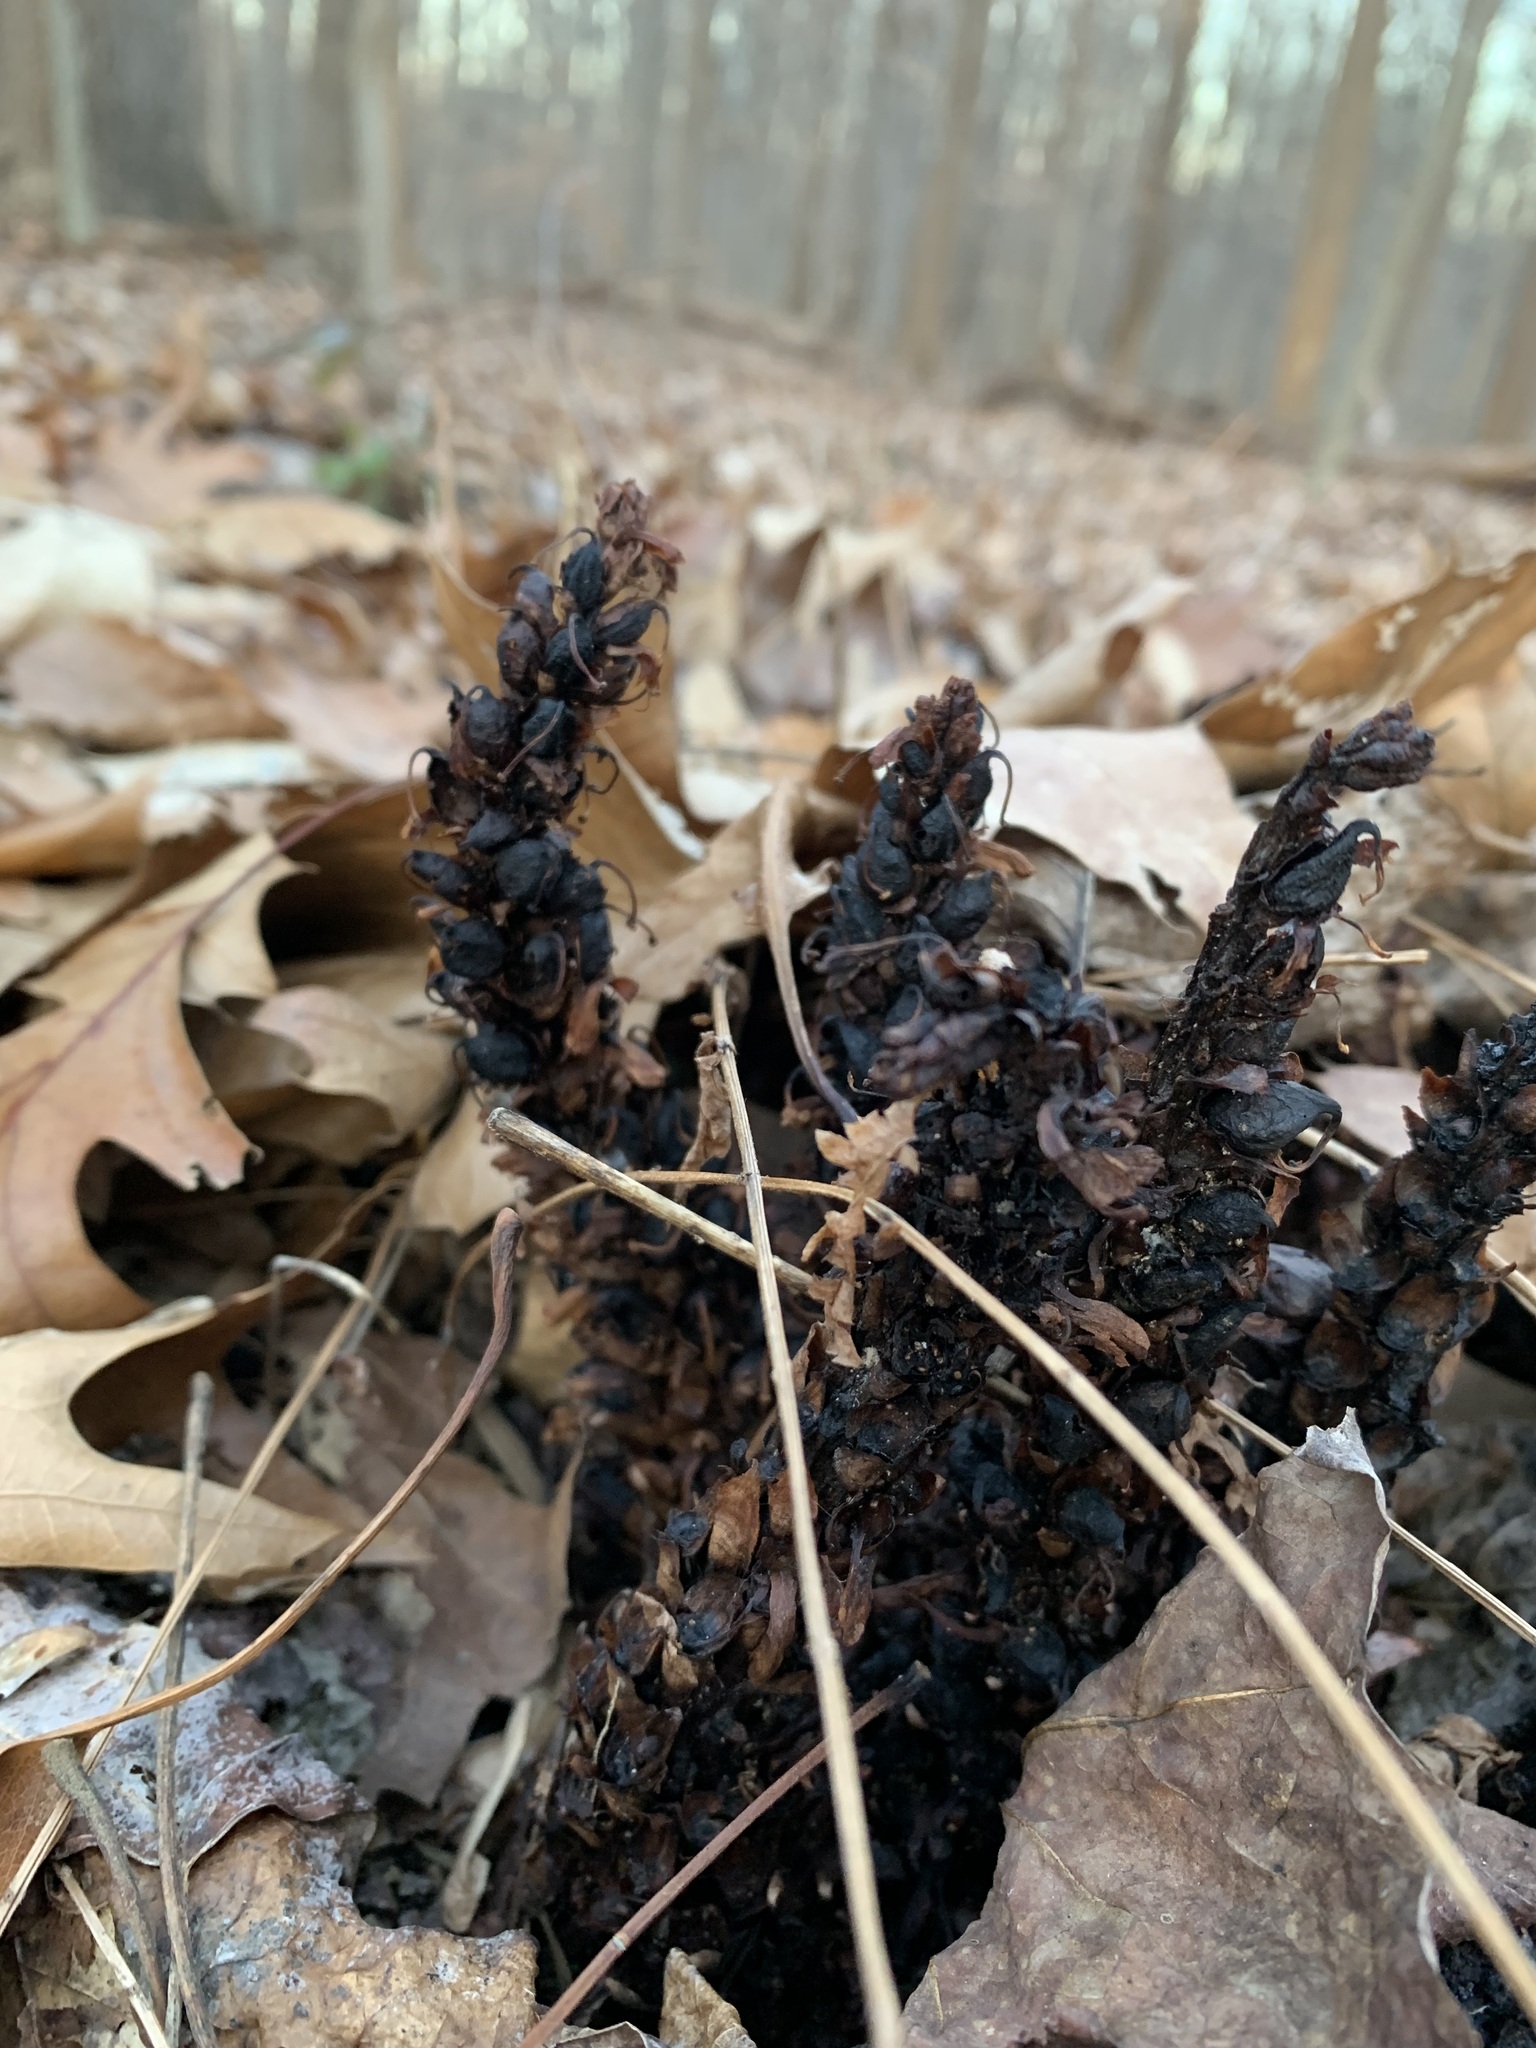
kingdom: Plantae
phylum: Tracheophyta
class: Magnoliopsida
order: Lamiales
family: Orobanchaceae
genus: Conopholis
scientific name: Conopholis americana
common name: American cancer-root
